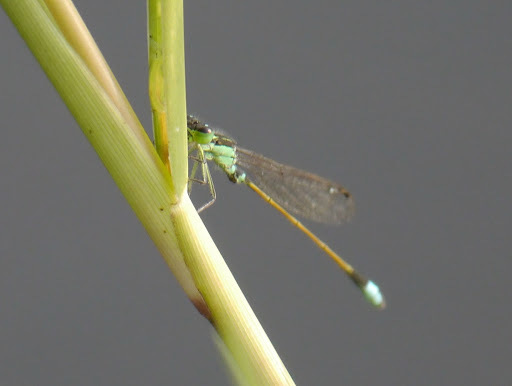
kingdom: Animalia
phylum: Arthropoda
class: Insecta
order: Odonata
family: Coenagrionidae
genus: Ischnura
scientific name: Ischnura senegalensis
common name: Tropical bluetail
